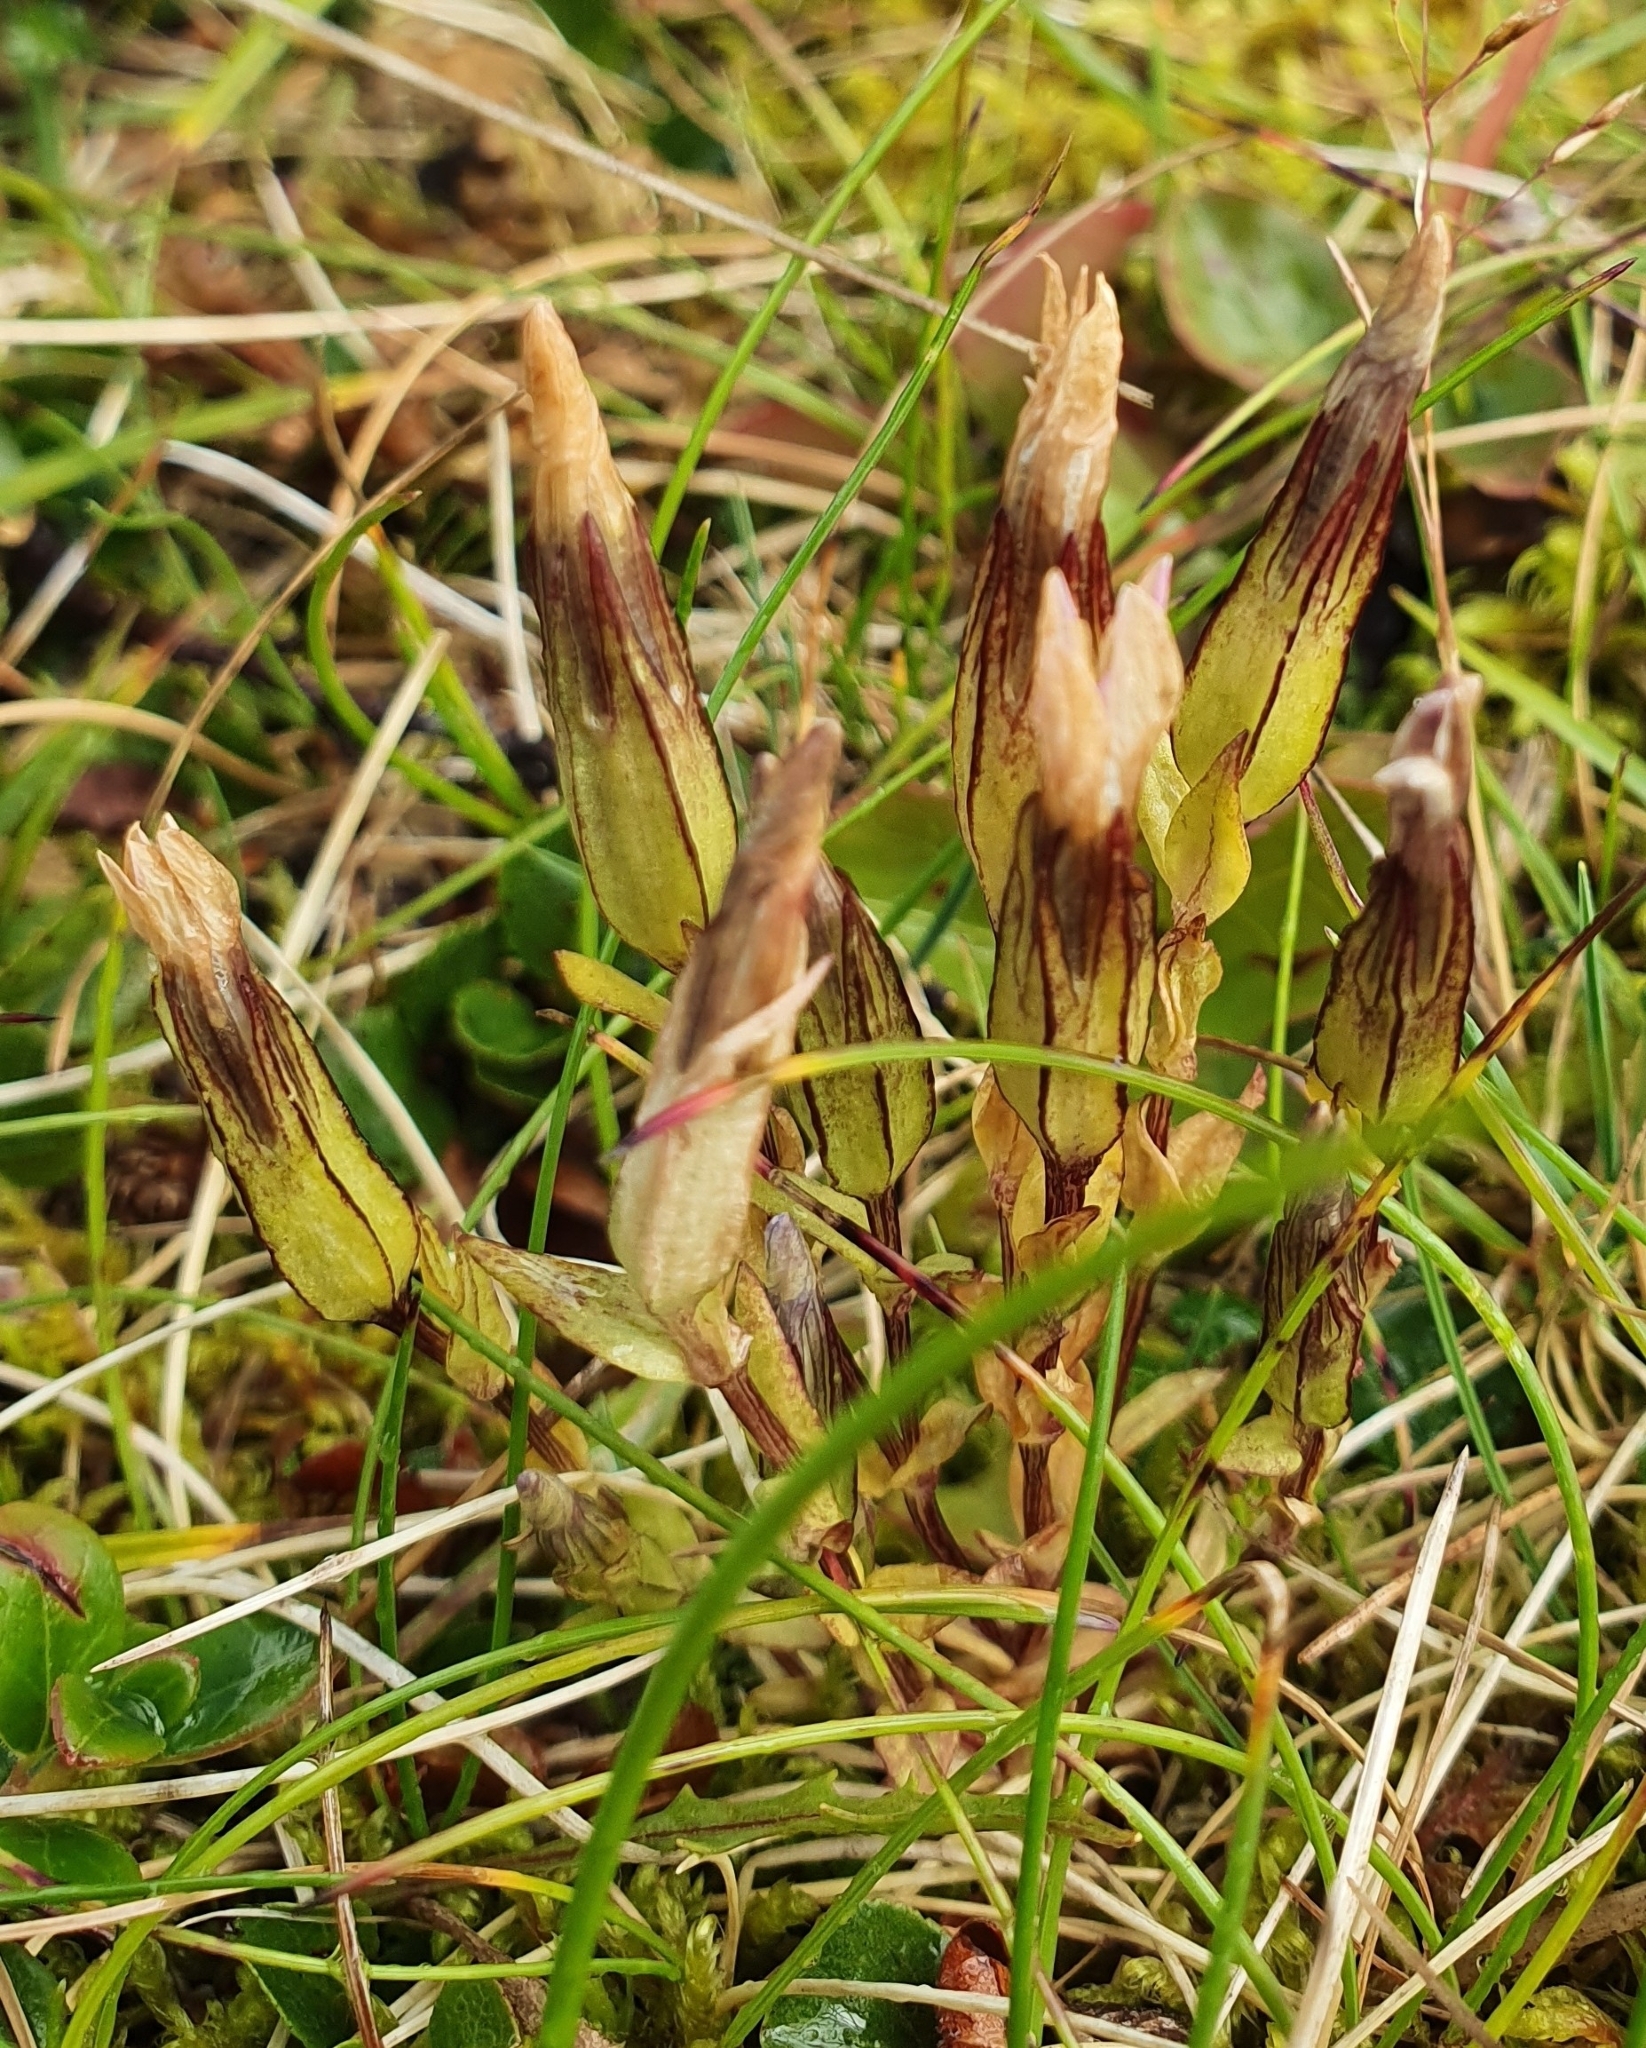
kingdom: Plantae
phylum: Tracheophyta
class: Magnoliopsida
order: Gentianales
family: Gentianaceae
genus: Gentiana
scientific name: Gentiana nivalis
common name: Alpine gentian
